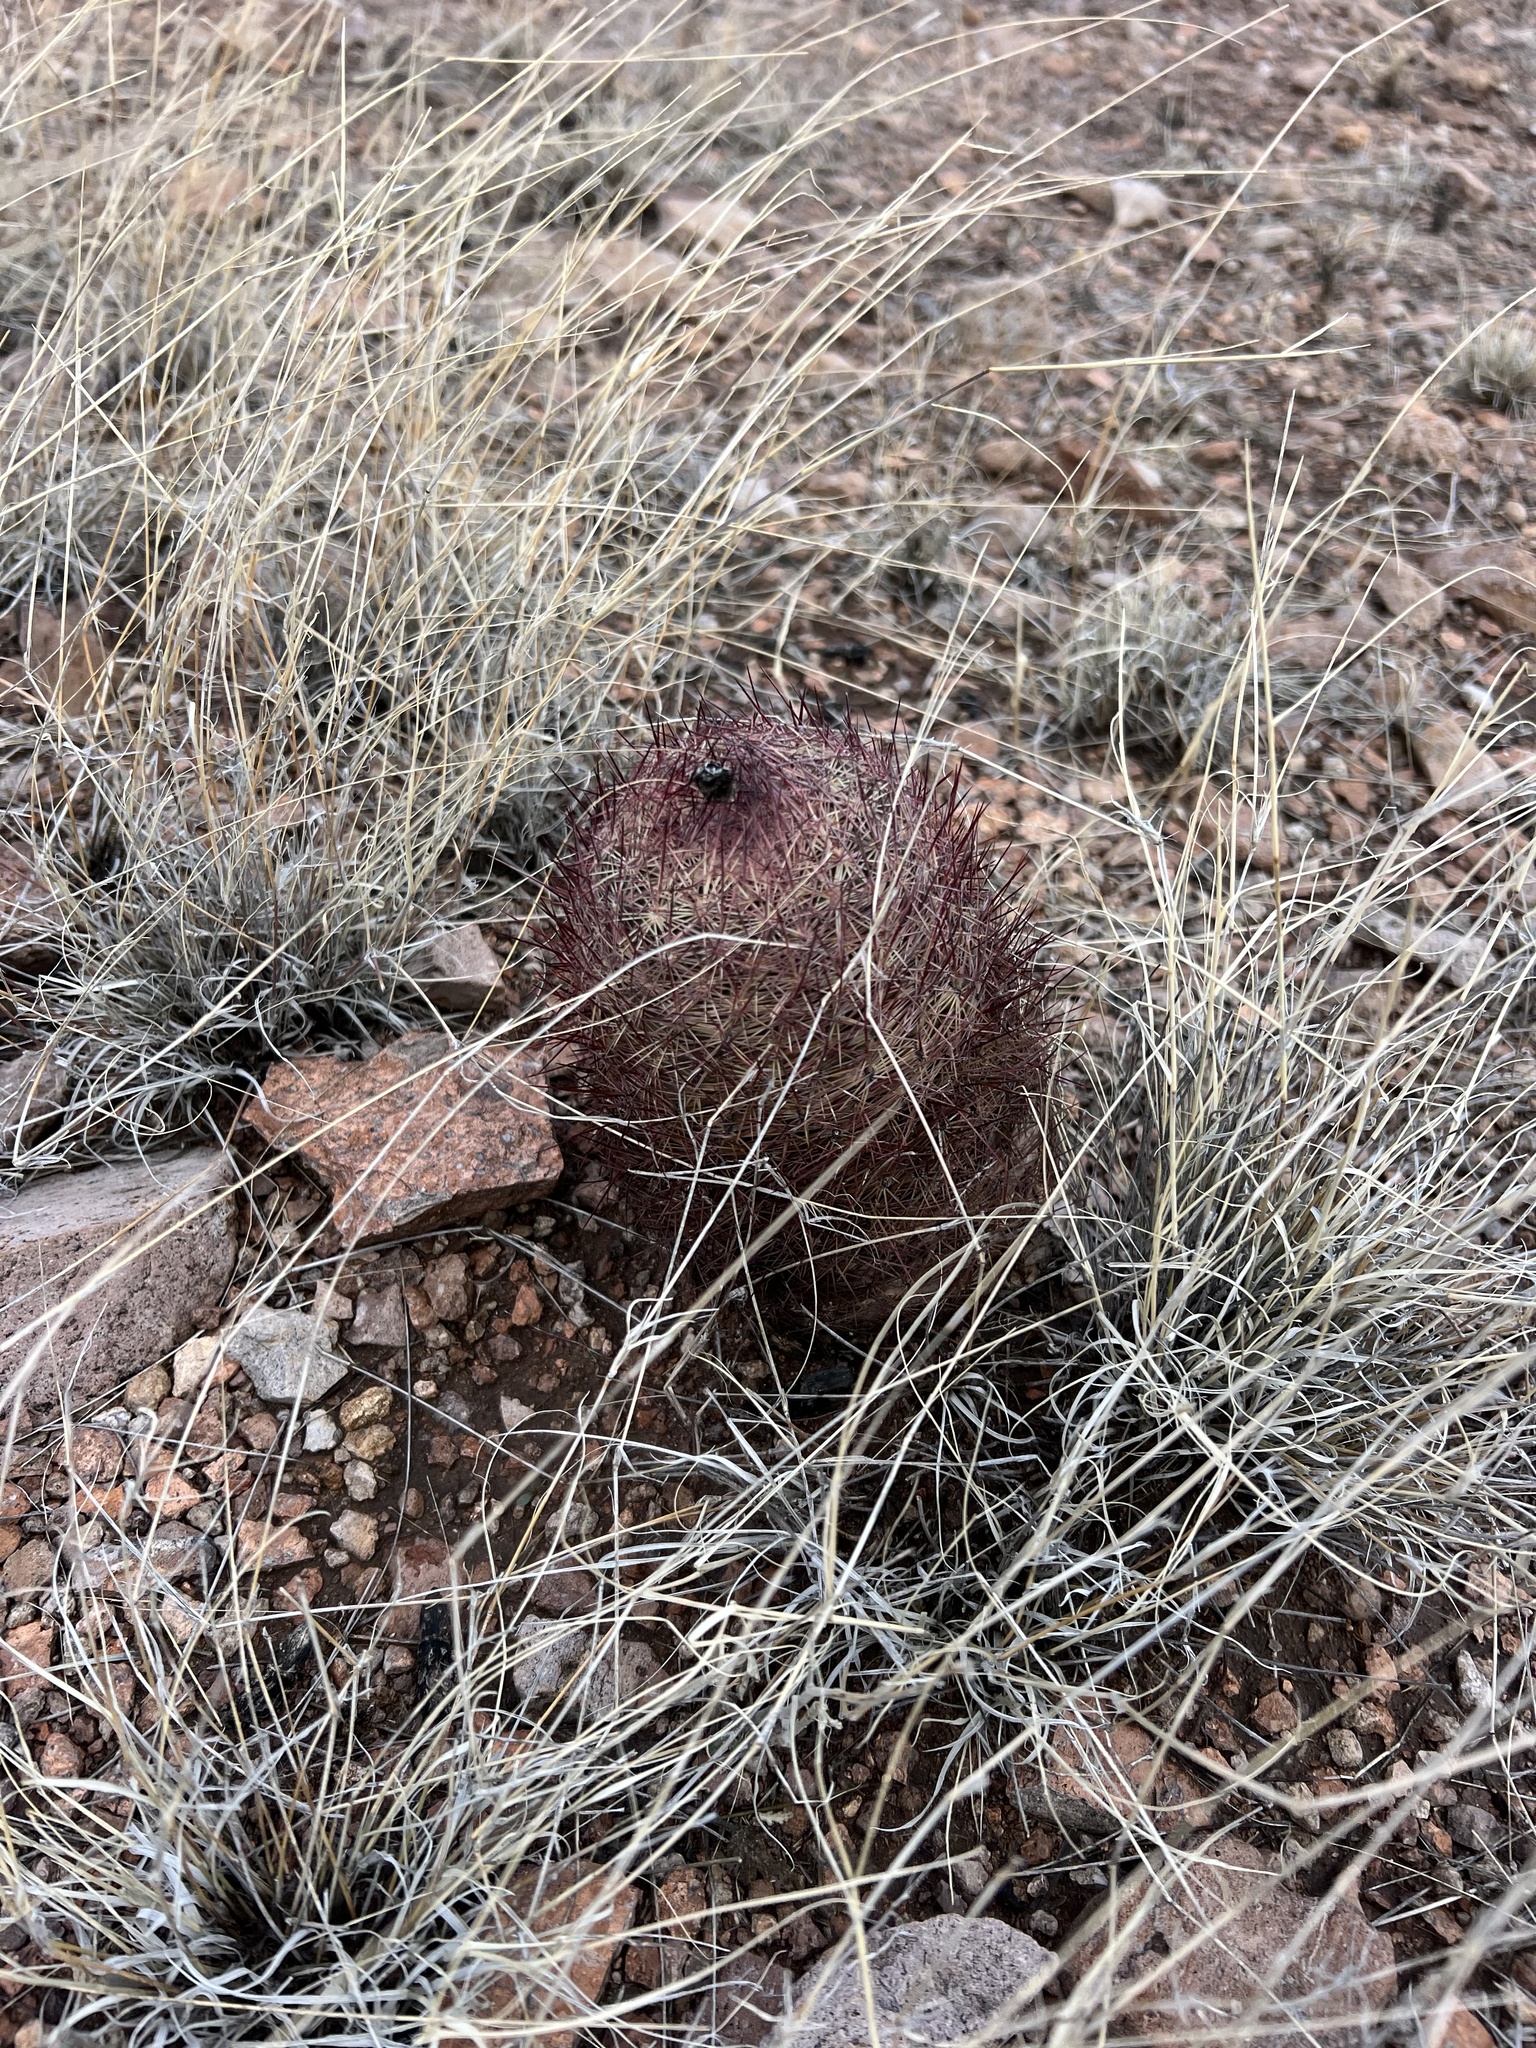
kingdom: Plantae
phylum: Tracheophyta
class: Magnoliopsida
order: Caryophyllales
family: Cactaceae
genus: Sclerocactus
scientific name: Sclerocactus johnsonii
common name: Eight-spine fishhook cactus
